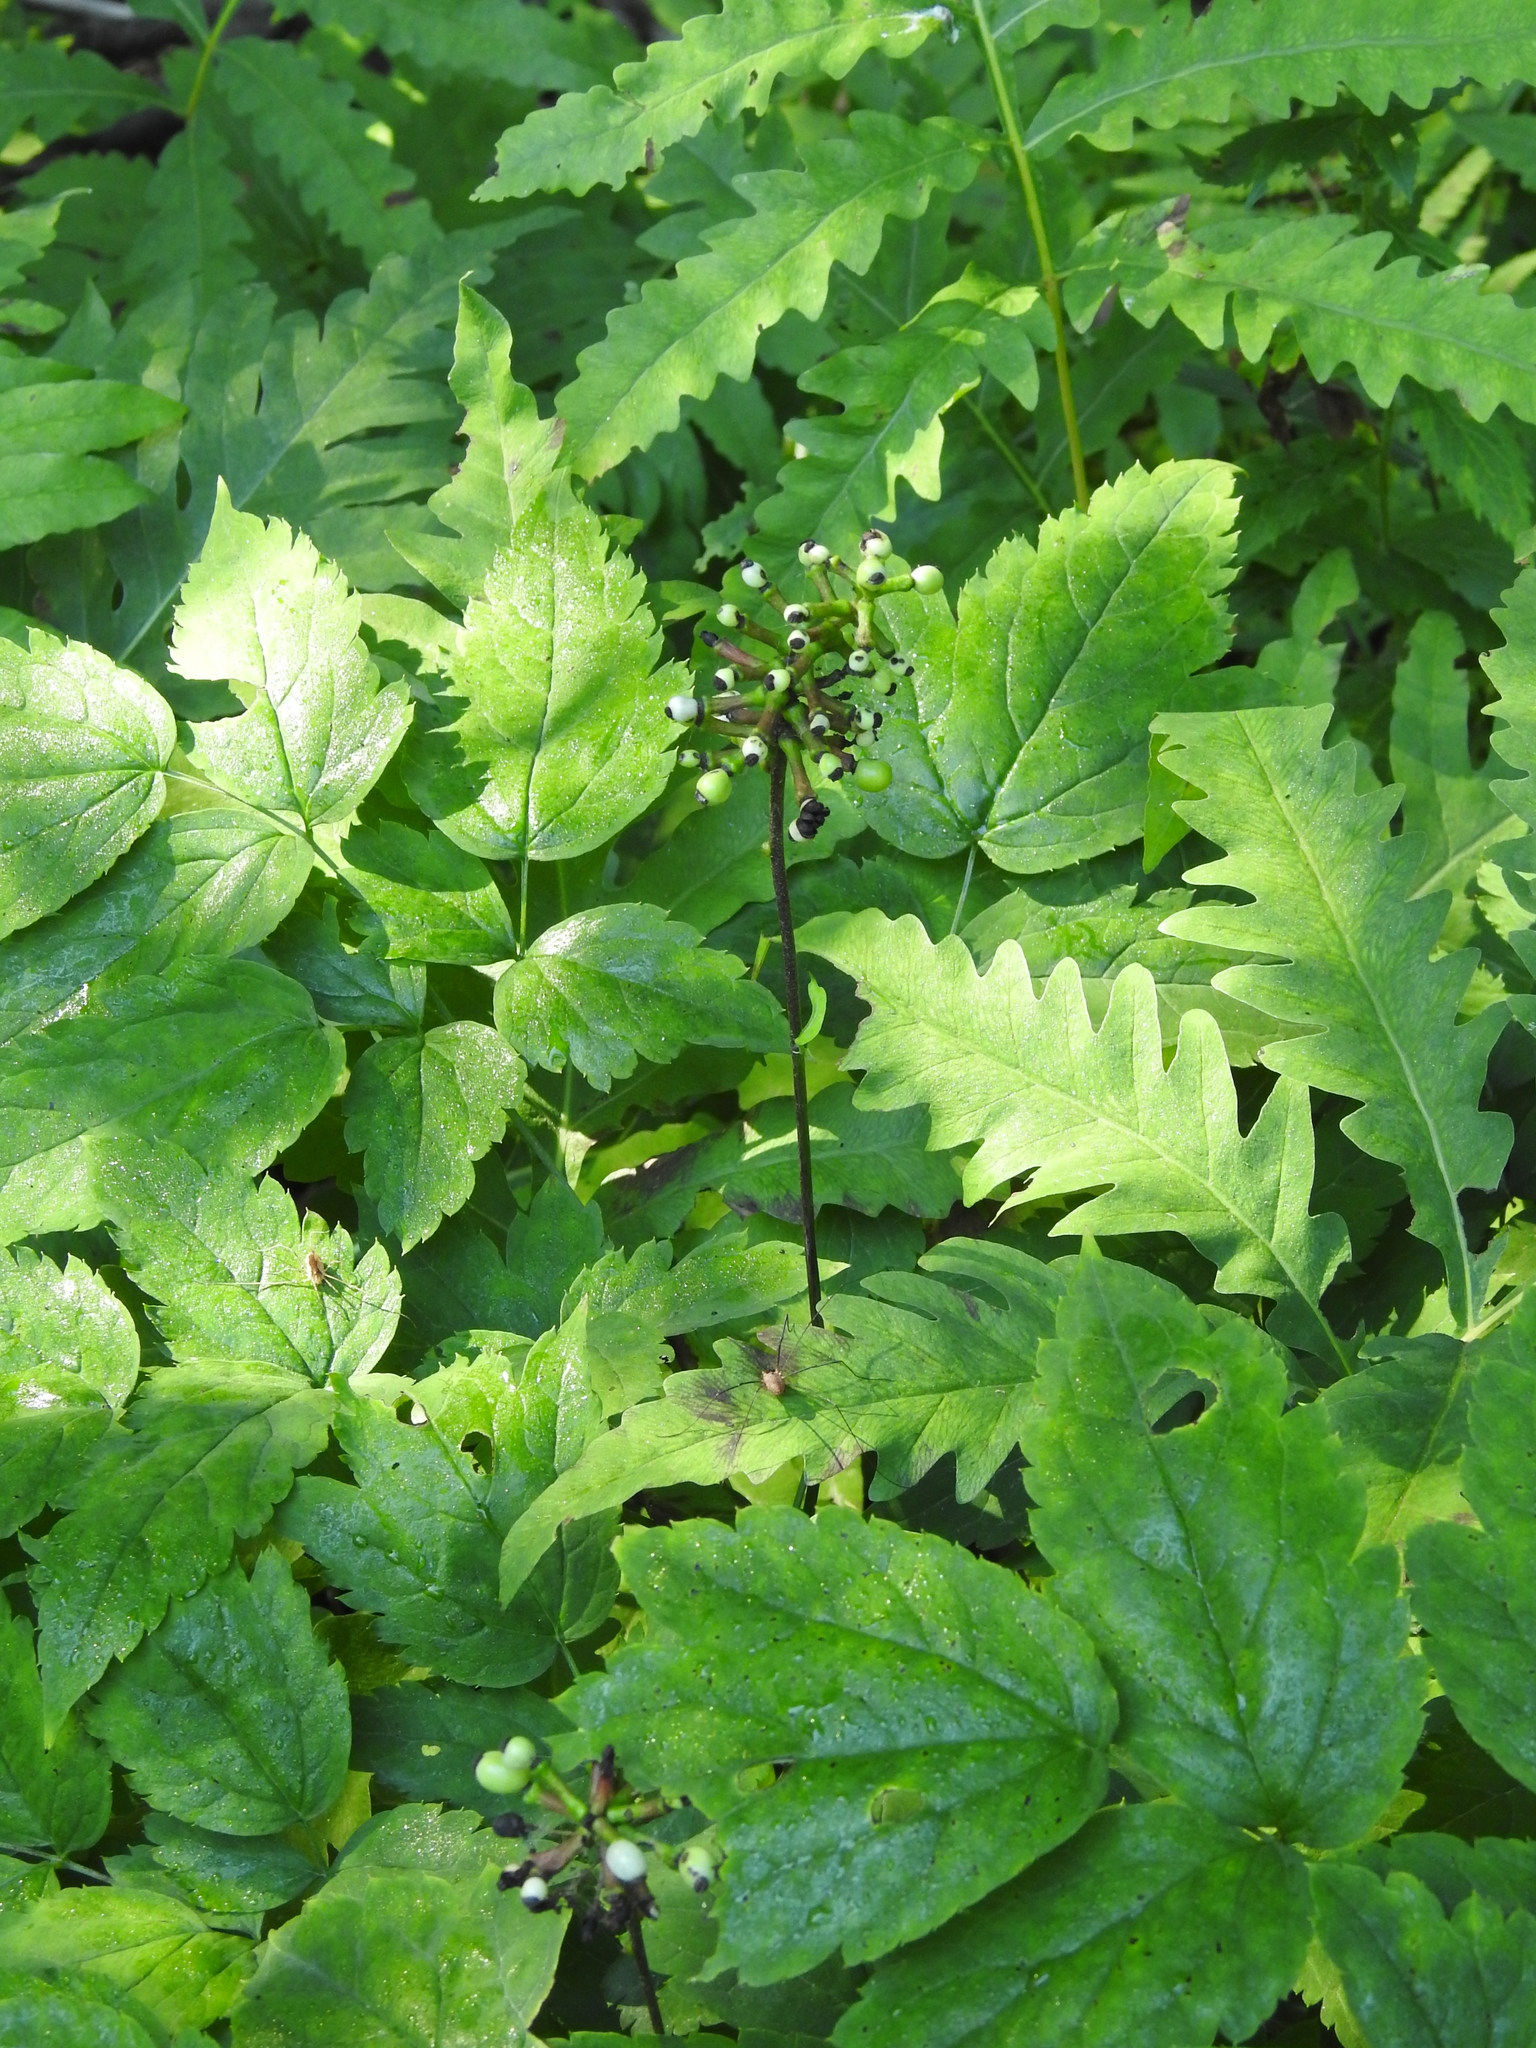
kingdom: Plantae
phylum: Tracheophyta
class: Magnoliopsida
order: Ranunculales
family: Ranunculaceae
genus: Actaea
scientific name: Actaea pachypoda
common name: Doll's-eyes
